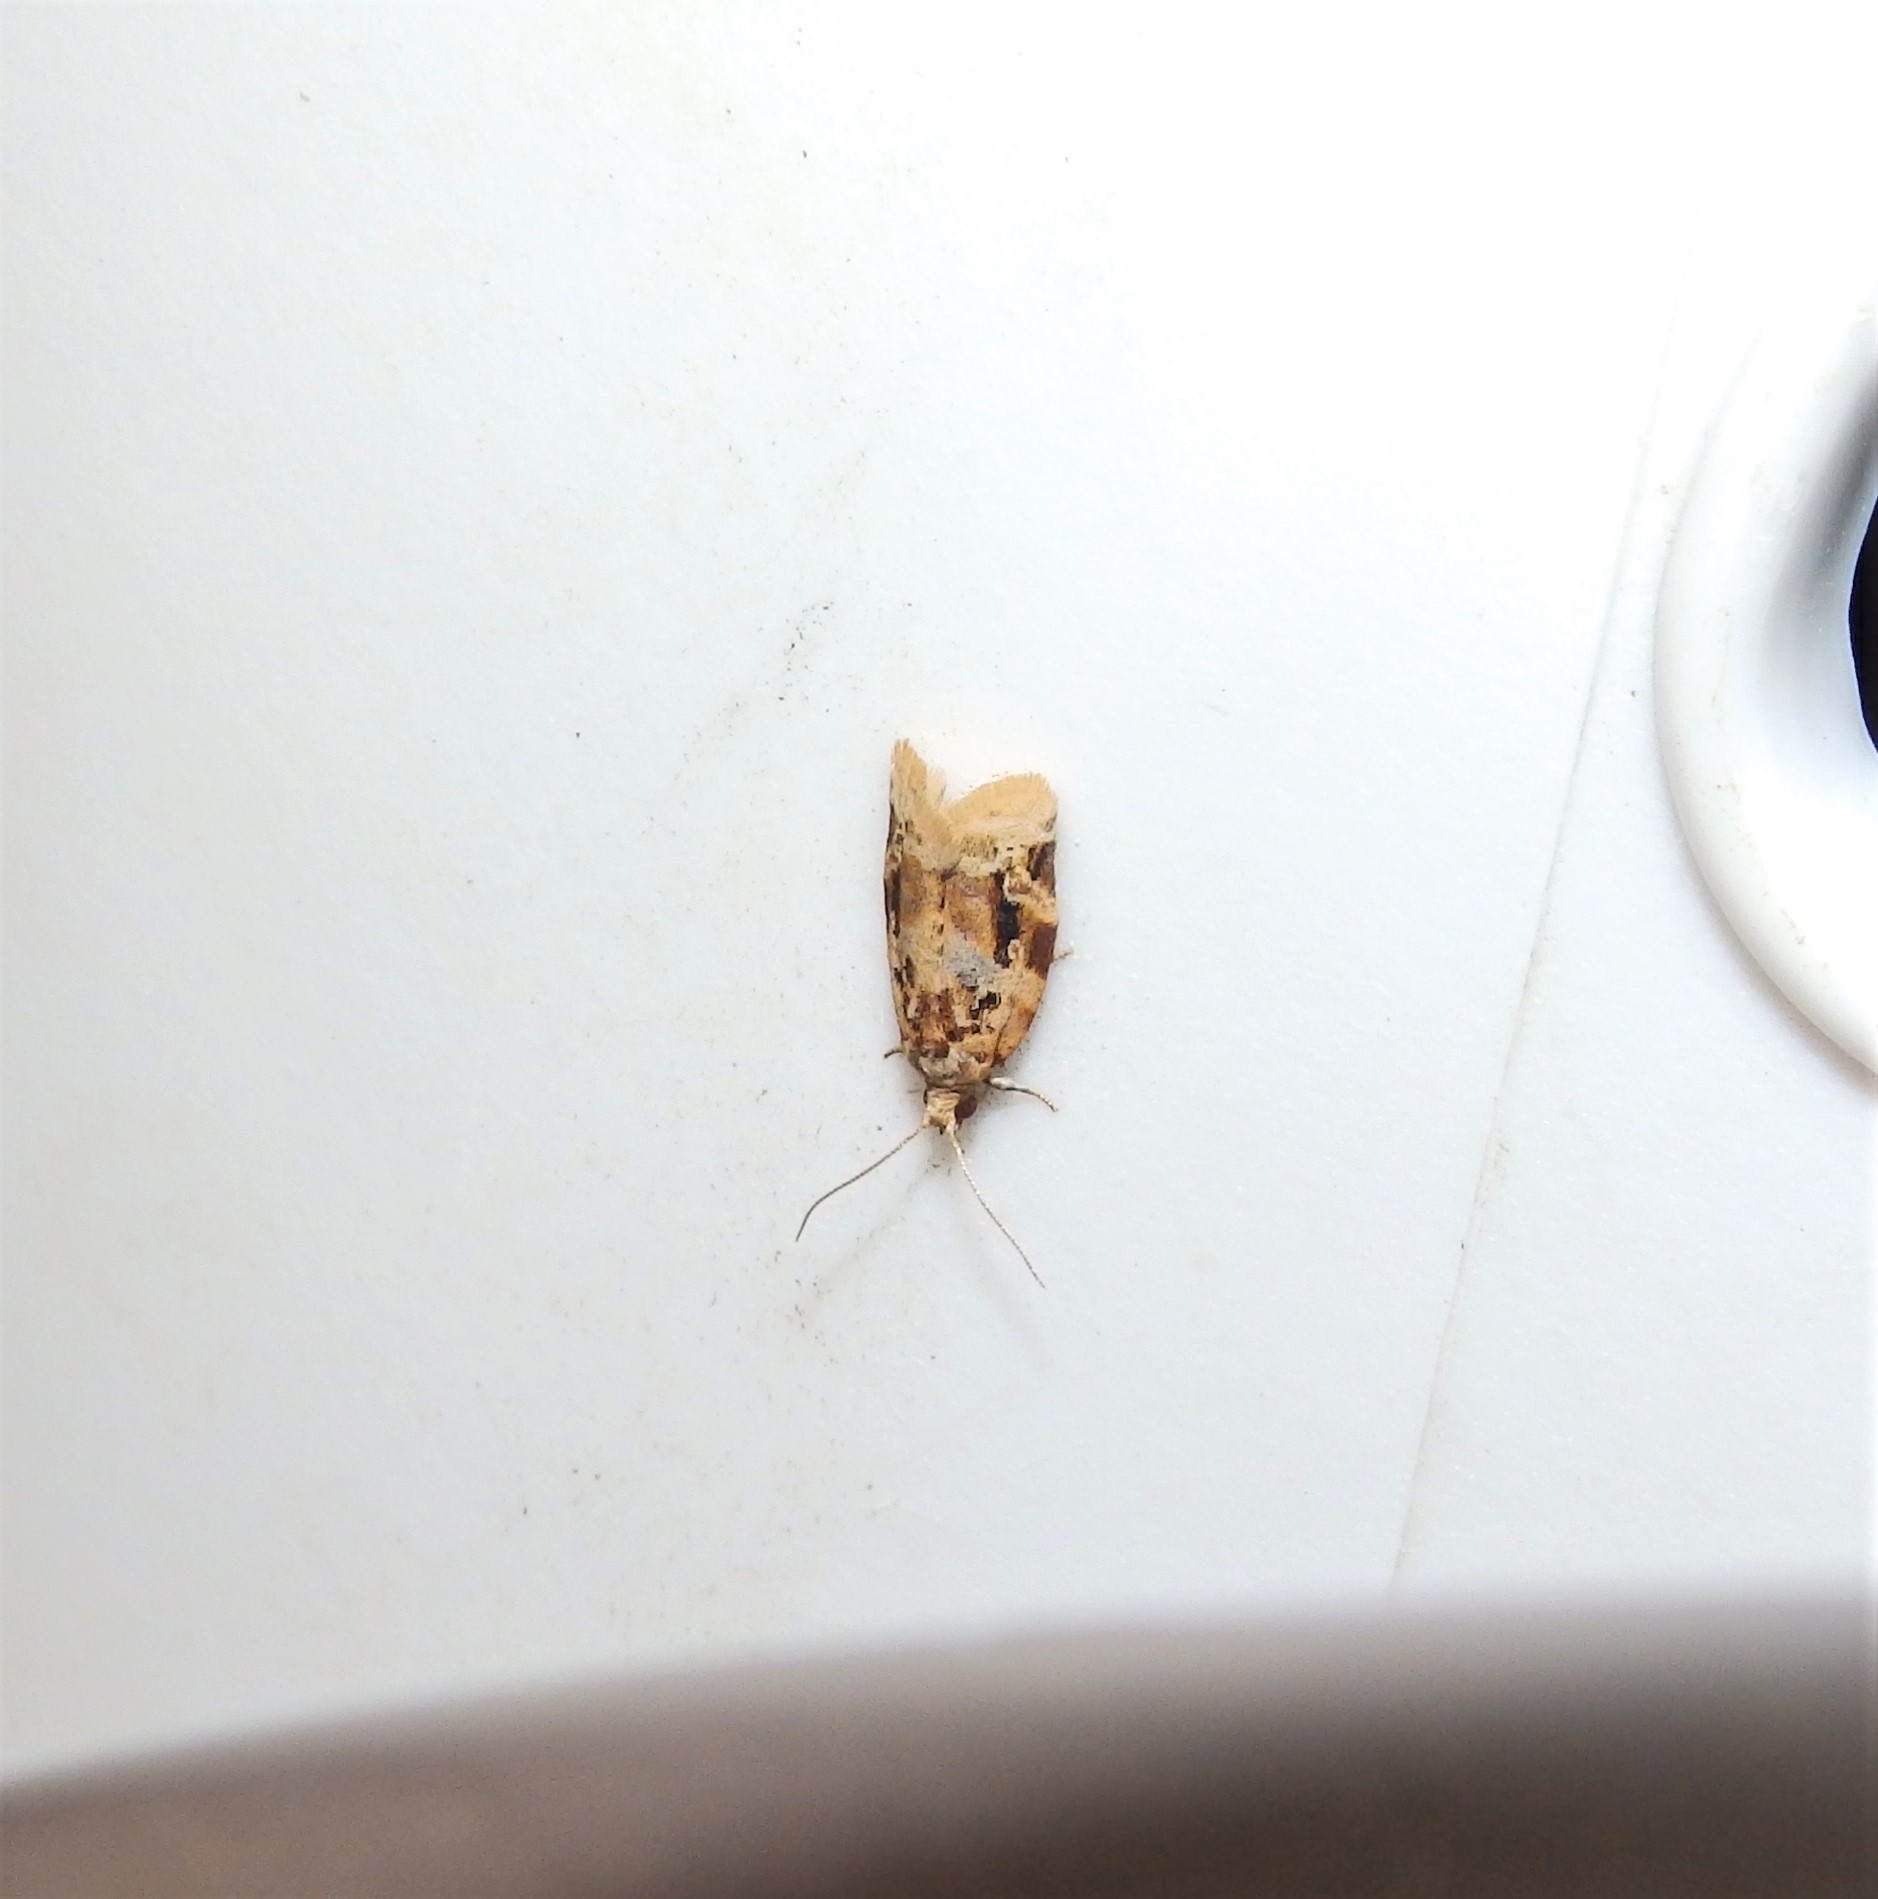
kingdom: Animalia
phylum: Arthropoda
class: Insecta
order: Lepidoptera
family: Tortricidae
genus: Argyrotaenia
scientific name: Argyrotaenia velutinana
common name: Red-banded leafroller moth
